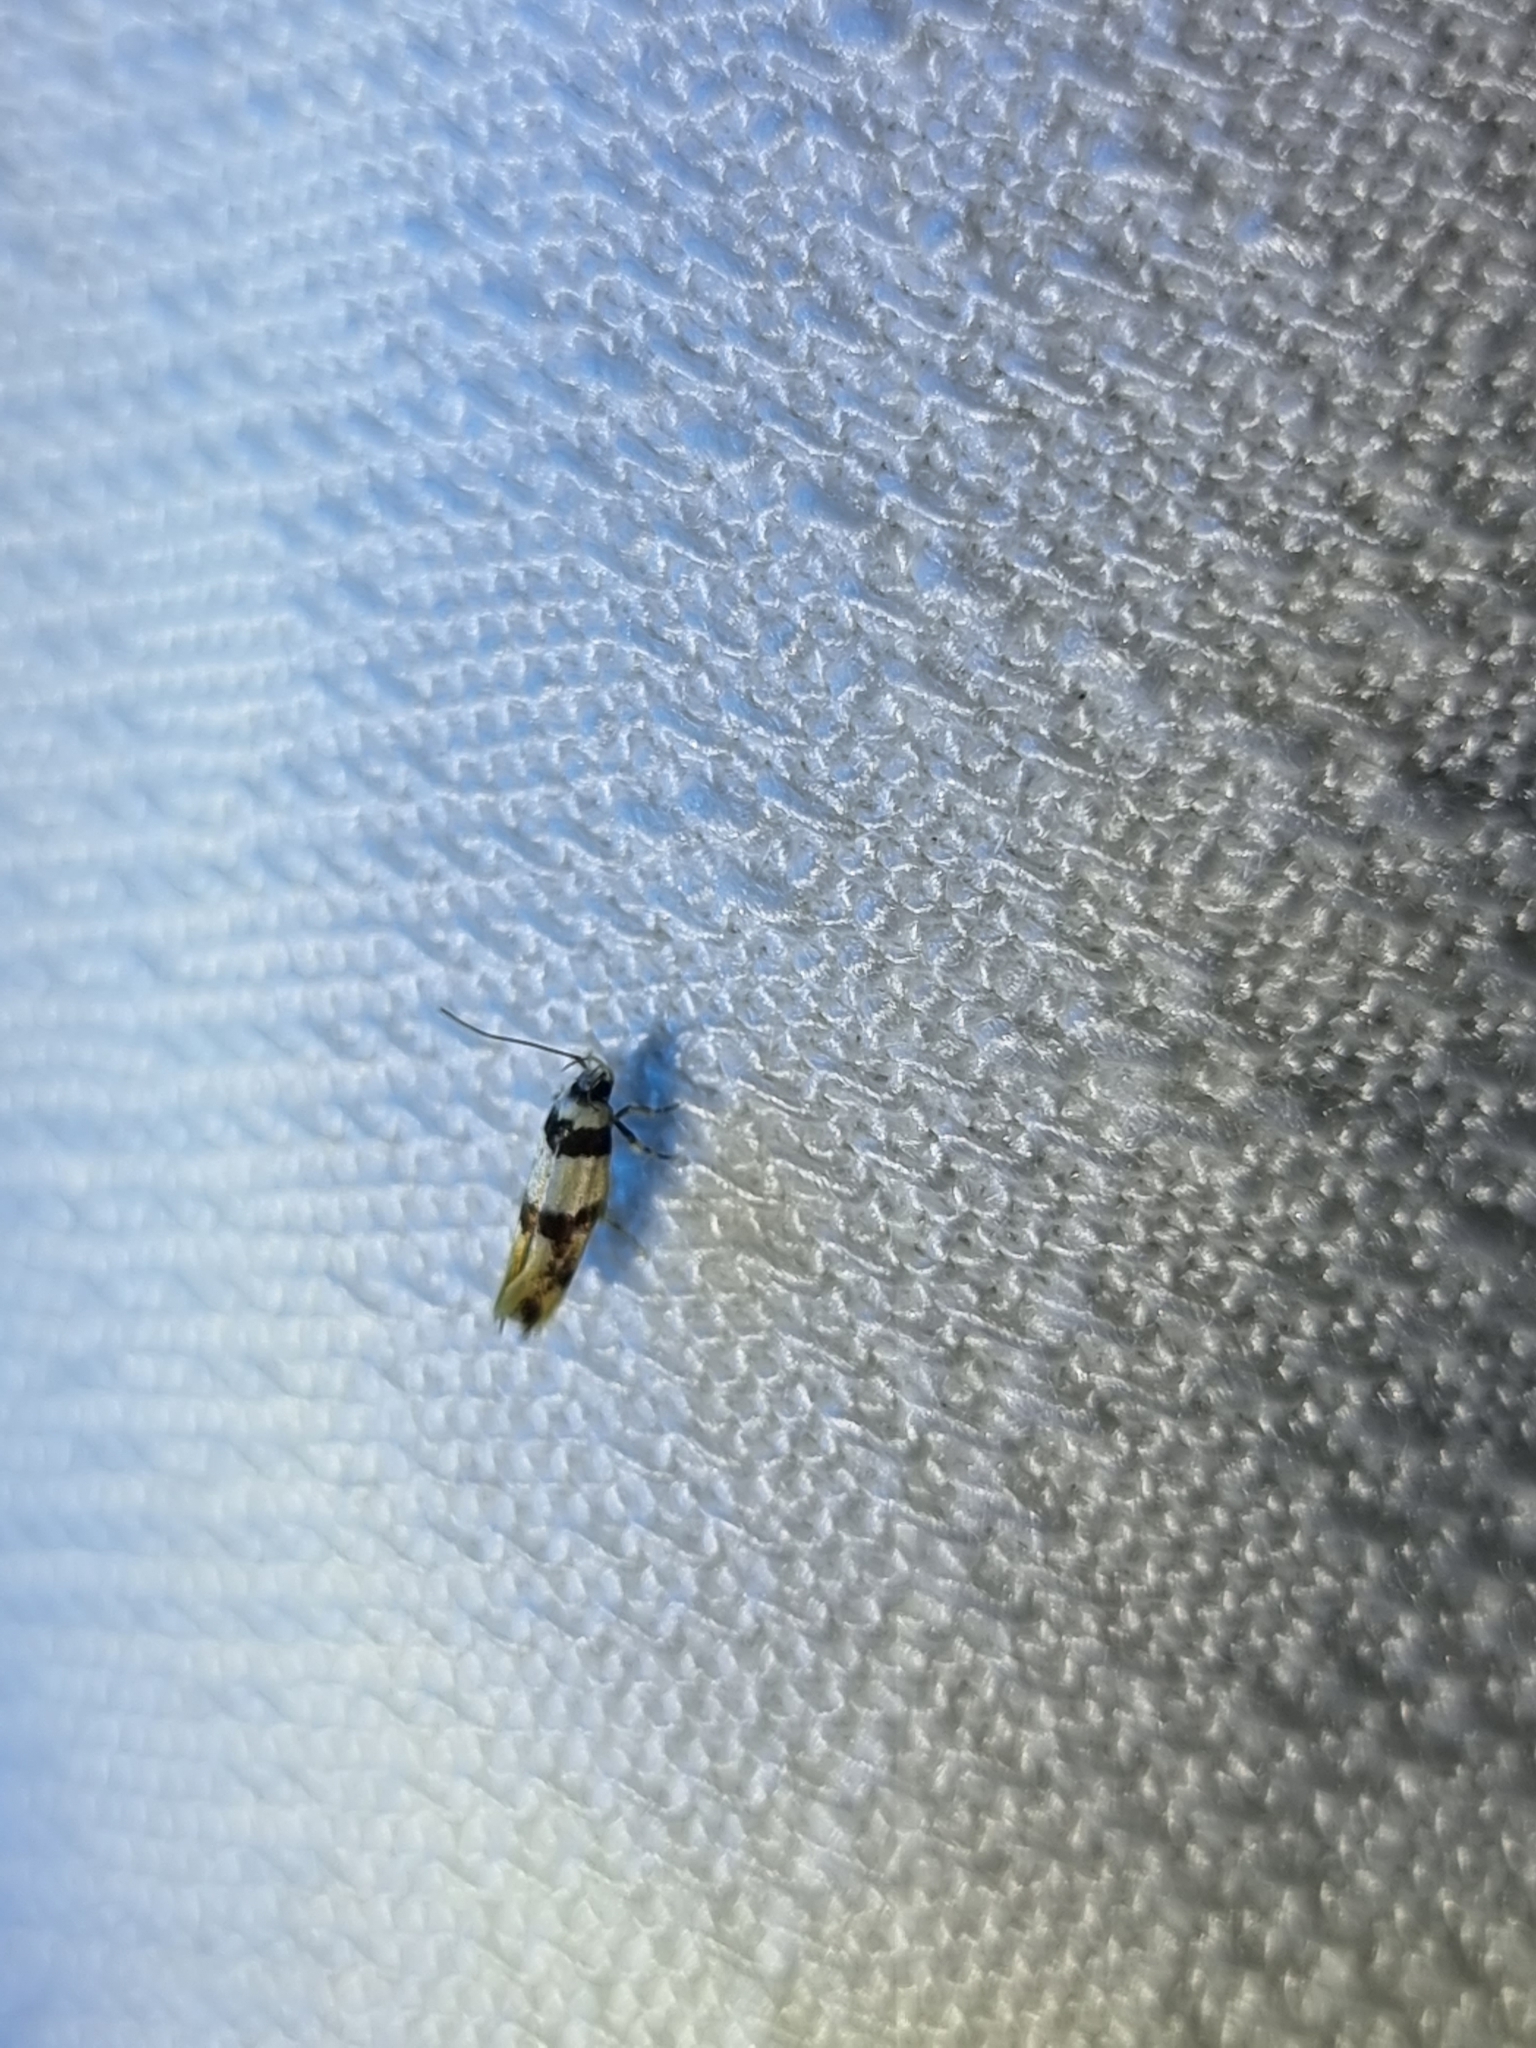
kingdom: Animalia
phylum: Arthropoda
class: Insecta
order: Lepidoptera
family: Xyloryctidae
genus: Lichenaula
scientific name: Lichenaula arisema
